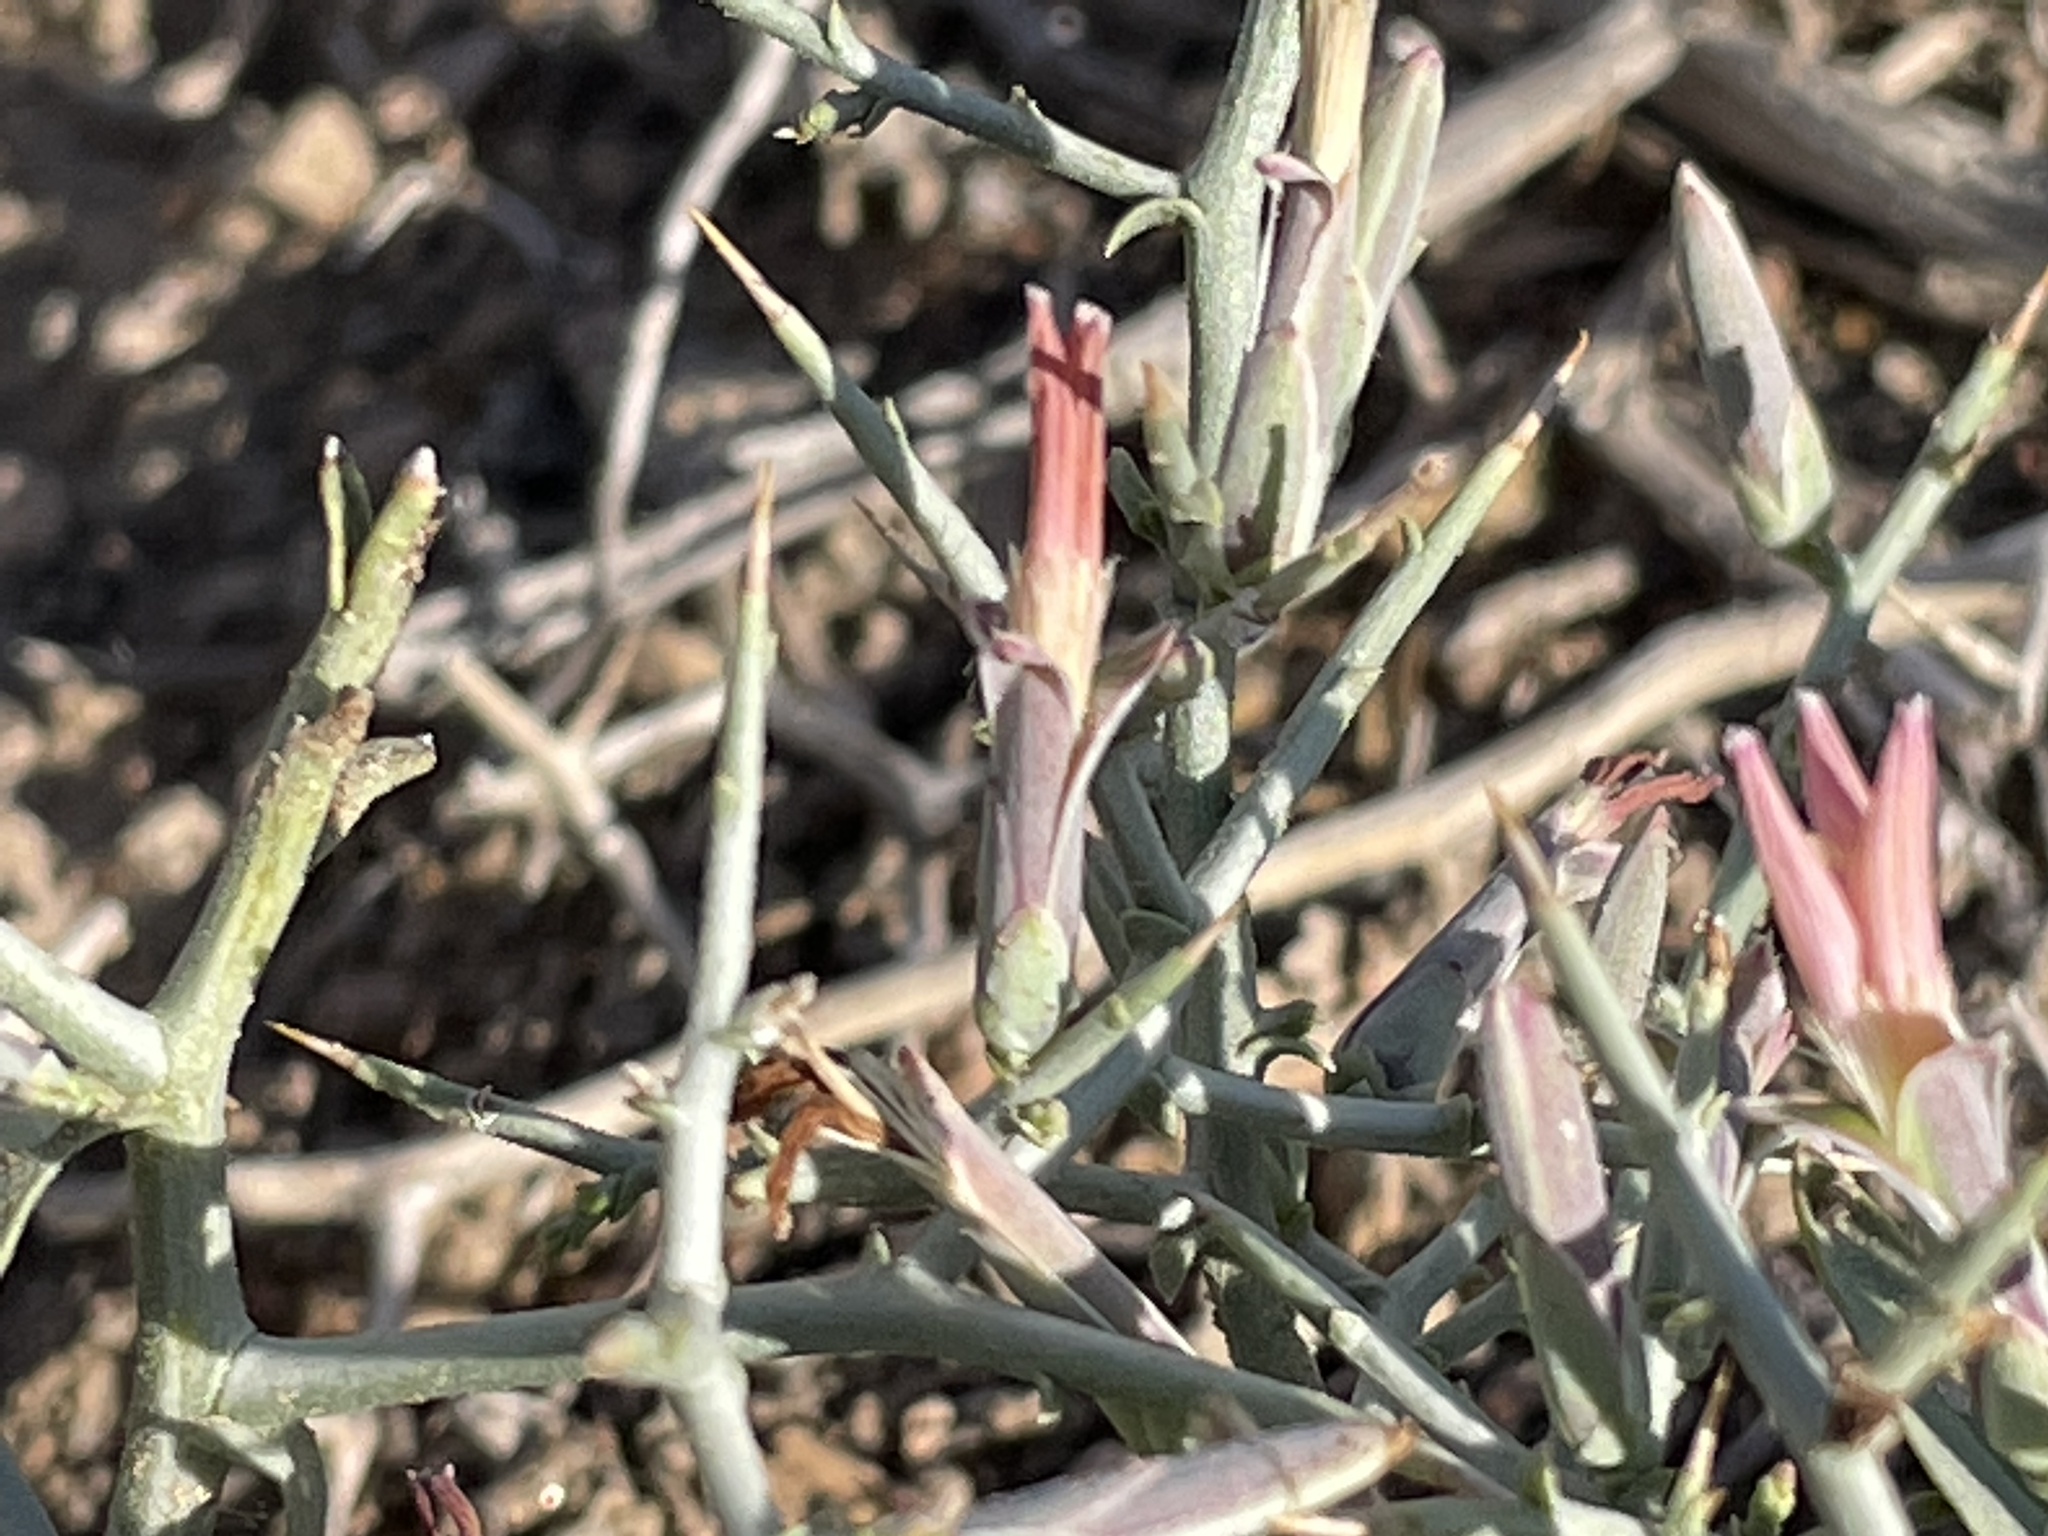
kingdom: Plantae
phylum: Tracheophyta
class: Magnoliopsida
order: Asterales
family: Asteraceae
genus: Pleiacanthus
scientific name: Pleiacanthus spinosus
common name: Thorny skeleton-weed
